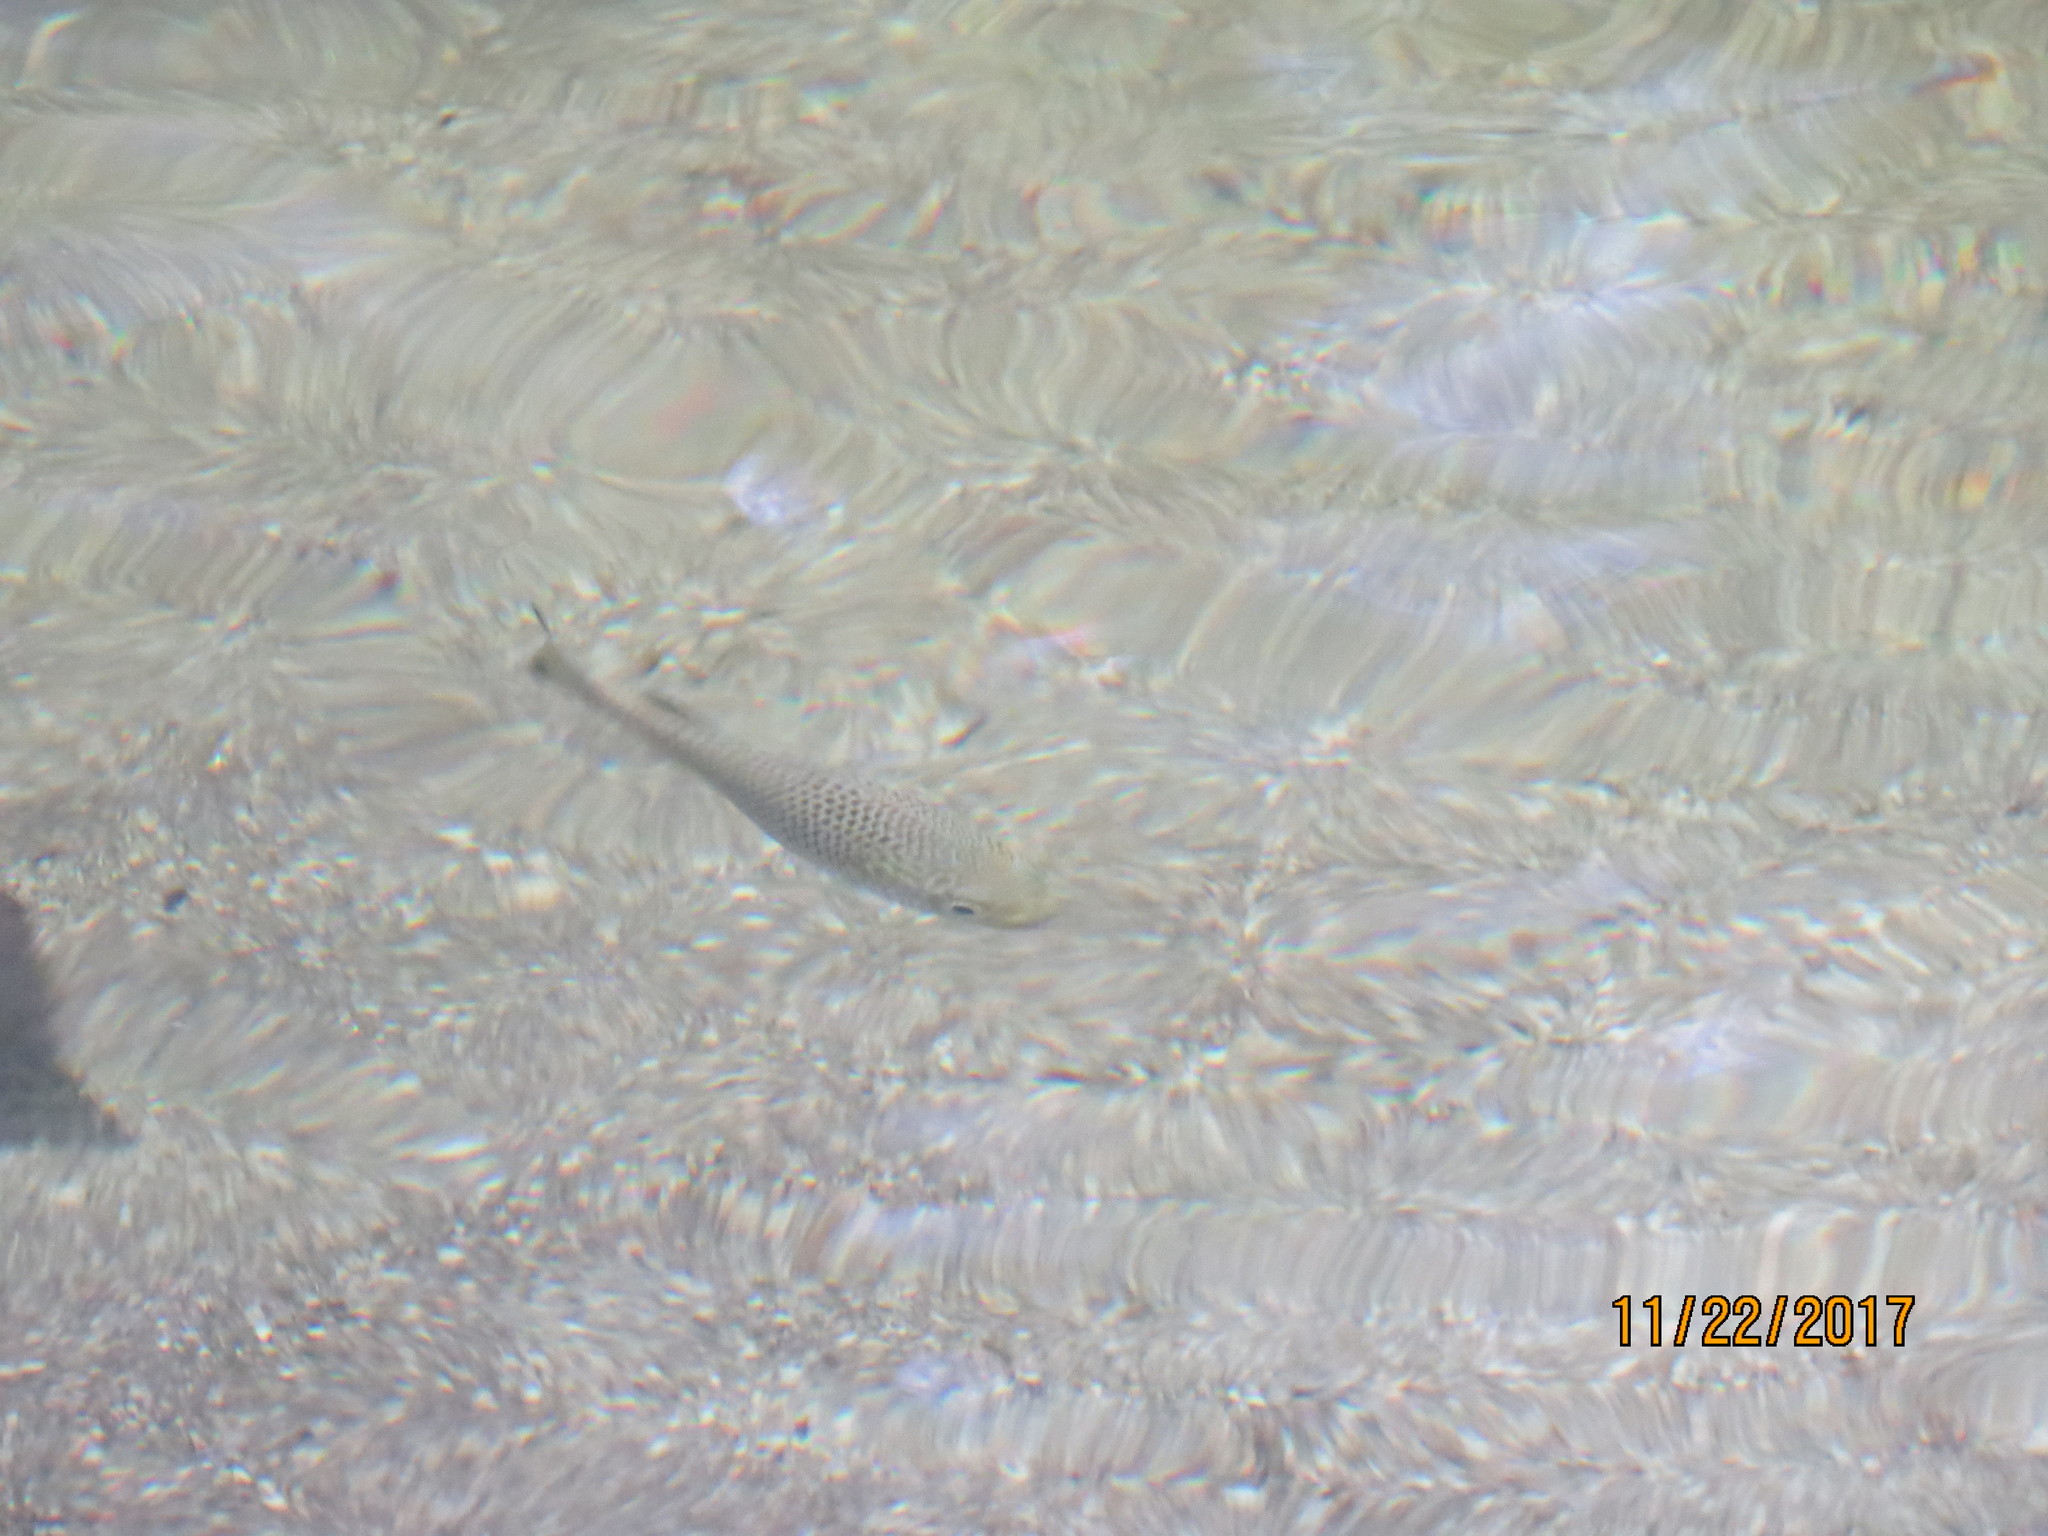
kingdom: Animalia
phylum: Chordata
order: Perciformes
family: Kuhliidae
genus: Kuhlia
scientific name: Kuhlia rupestris
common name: Rock flagtail
